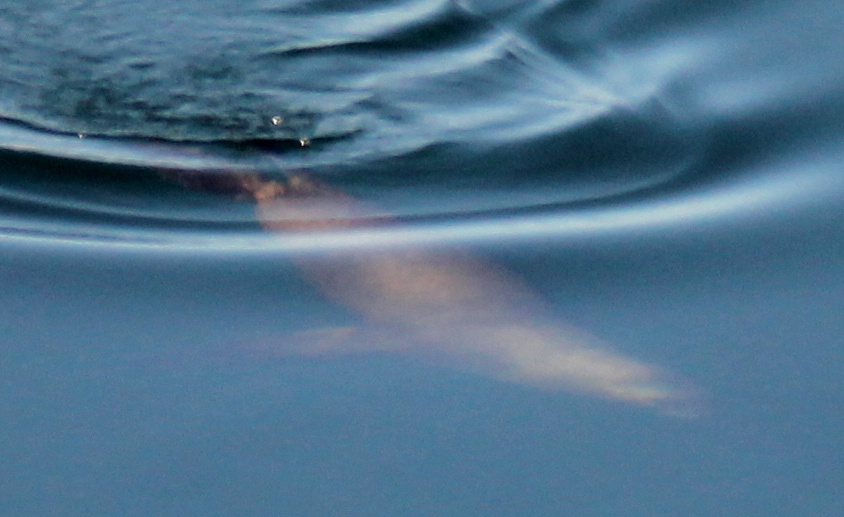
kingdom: Animalia
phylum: Chordata
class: Mammalia
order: Carnivora
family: Otariidae
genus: Otaria
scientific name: Otaria byronia
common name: South american sea lion
